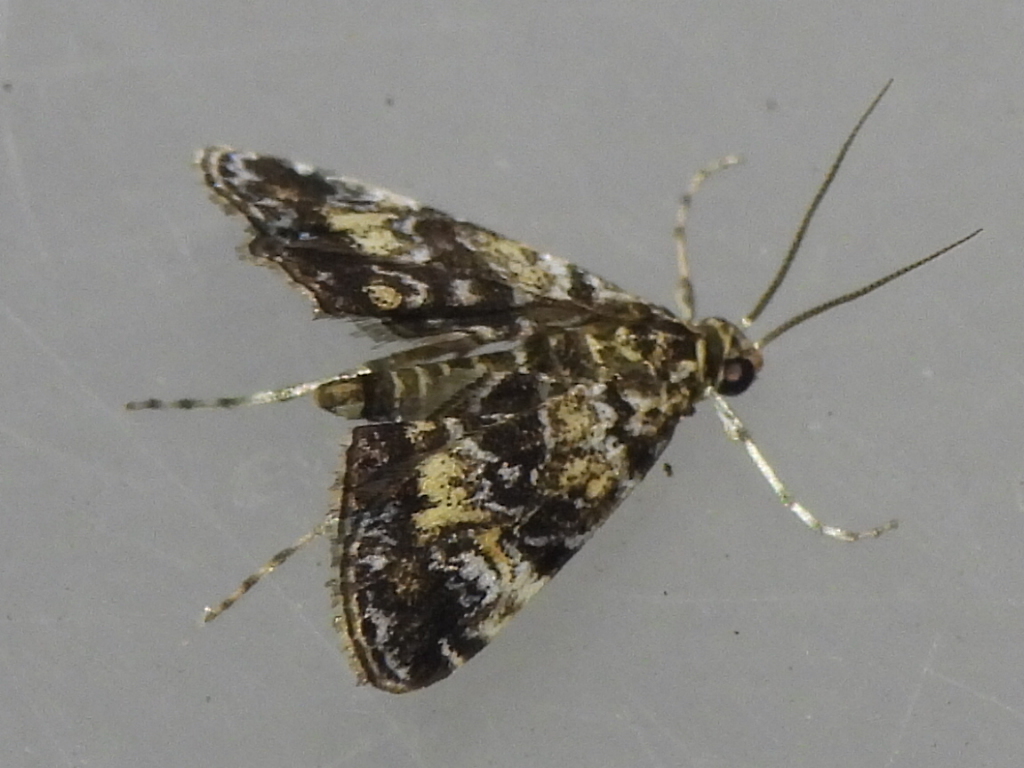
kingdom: Animalia
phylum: Arthropoda
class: Insecta
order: Lepidoptera
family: Crambidae
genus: Elophila
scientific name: Elophila obliteralis
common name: Waterlily leafcutter moth
